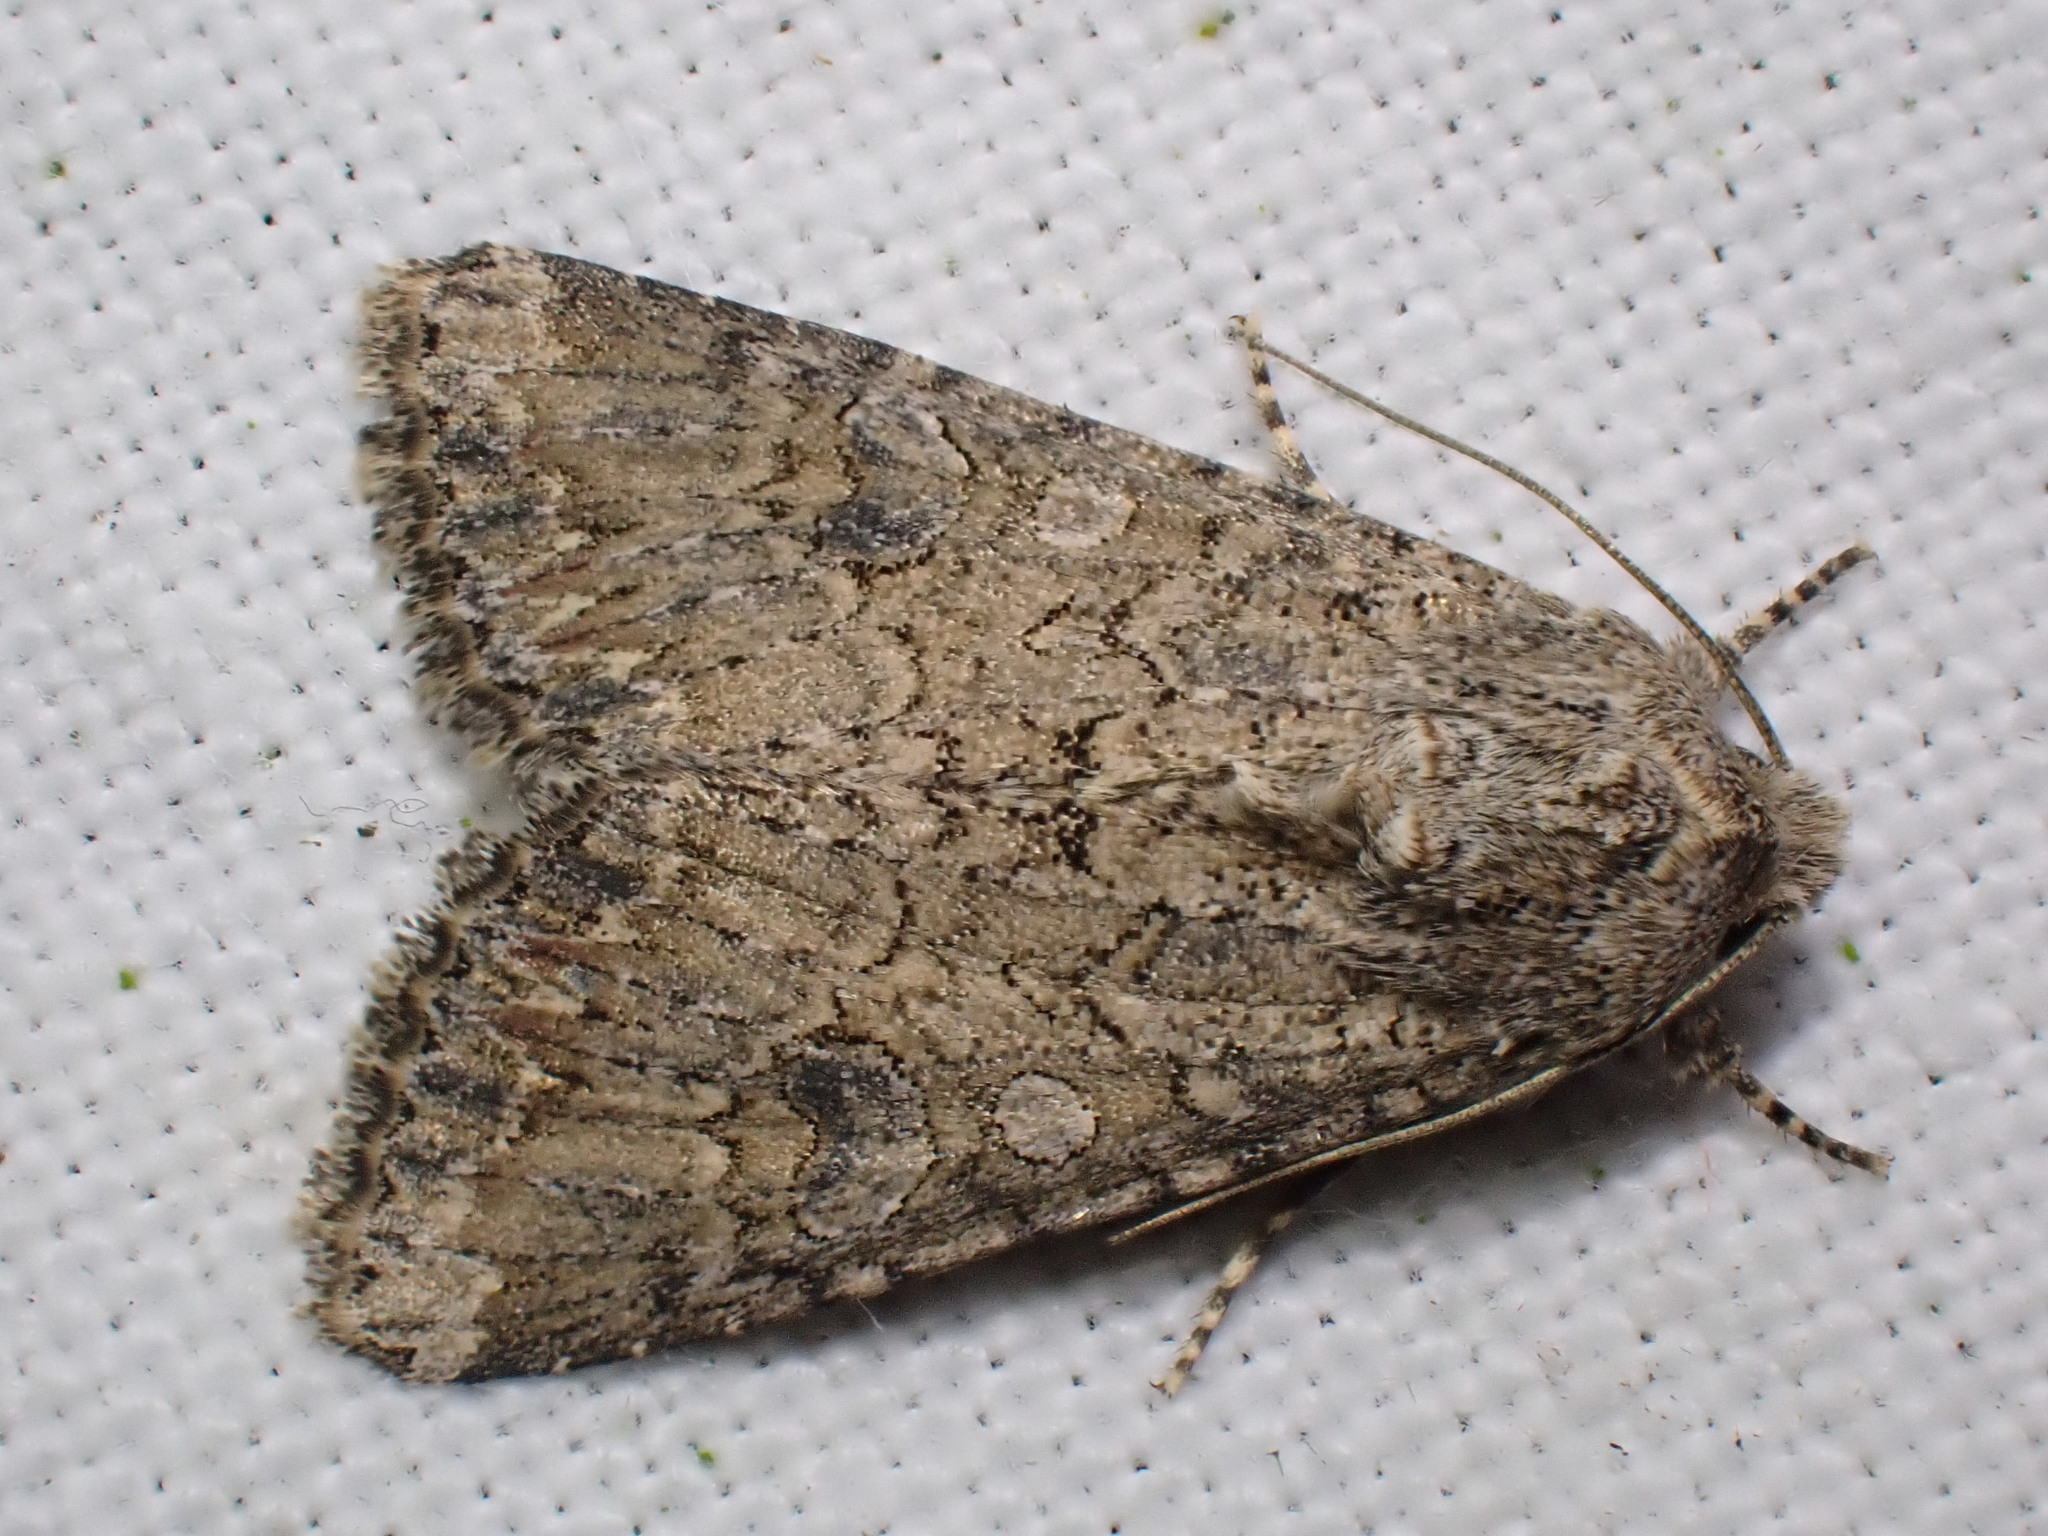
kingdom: Animalia
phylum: Arthropoda
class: Insecta
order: Lepidoptera
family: Noctuidae
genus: Anarta
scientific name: Anarta trifolii
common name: Clover cutworm moth
